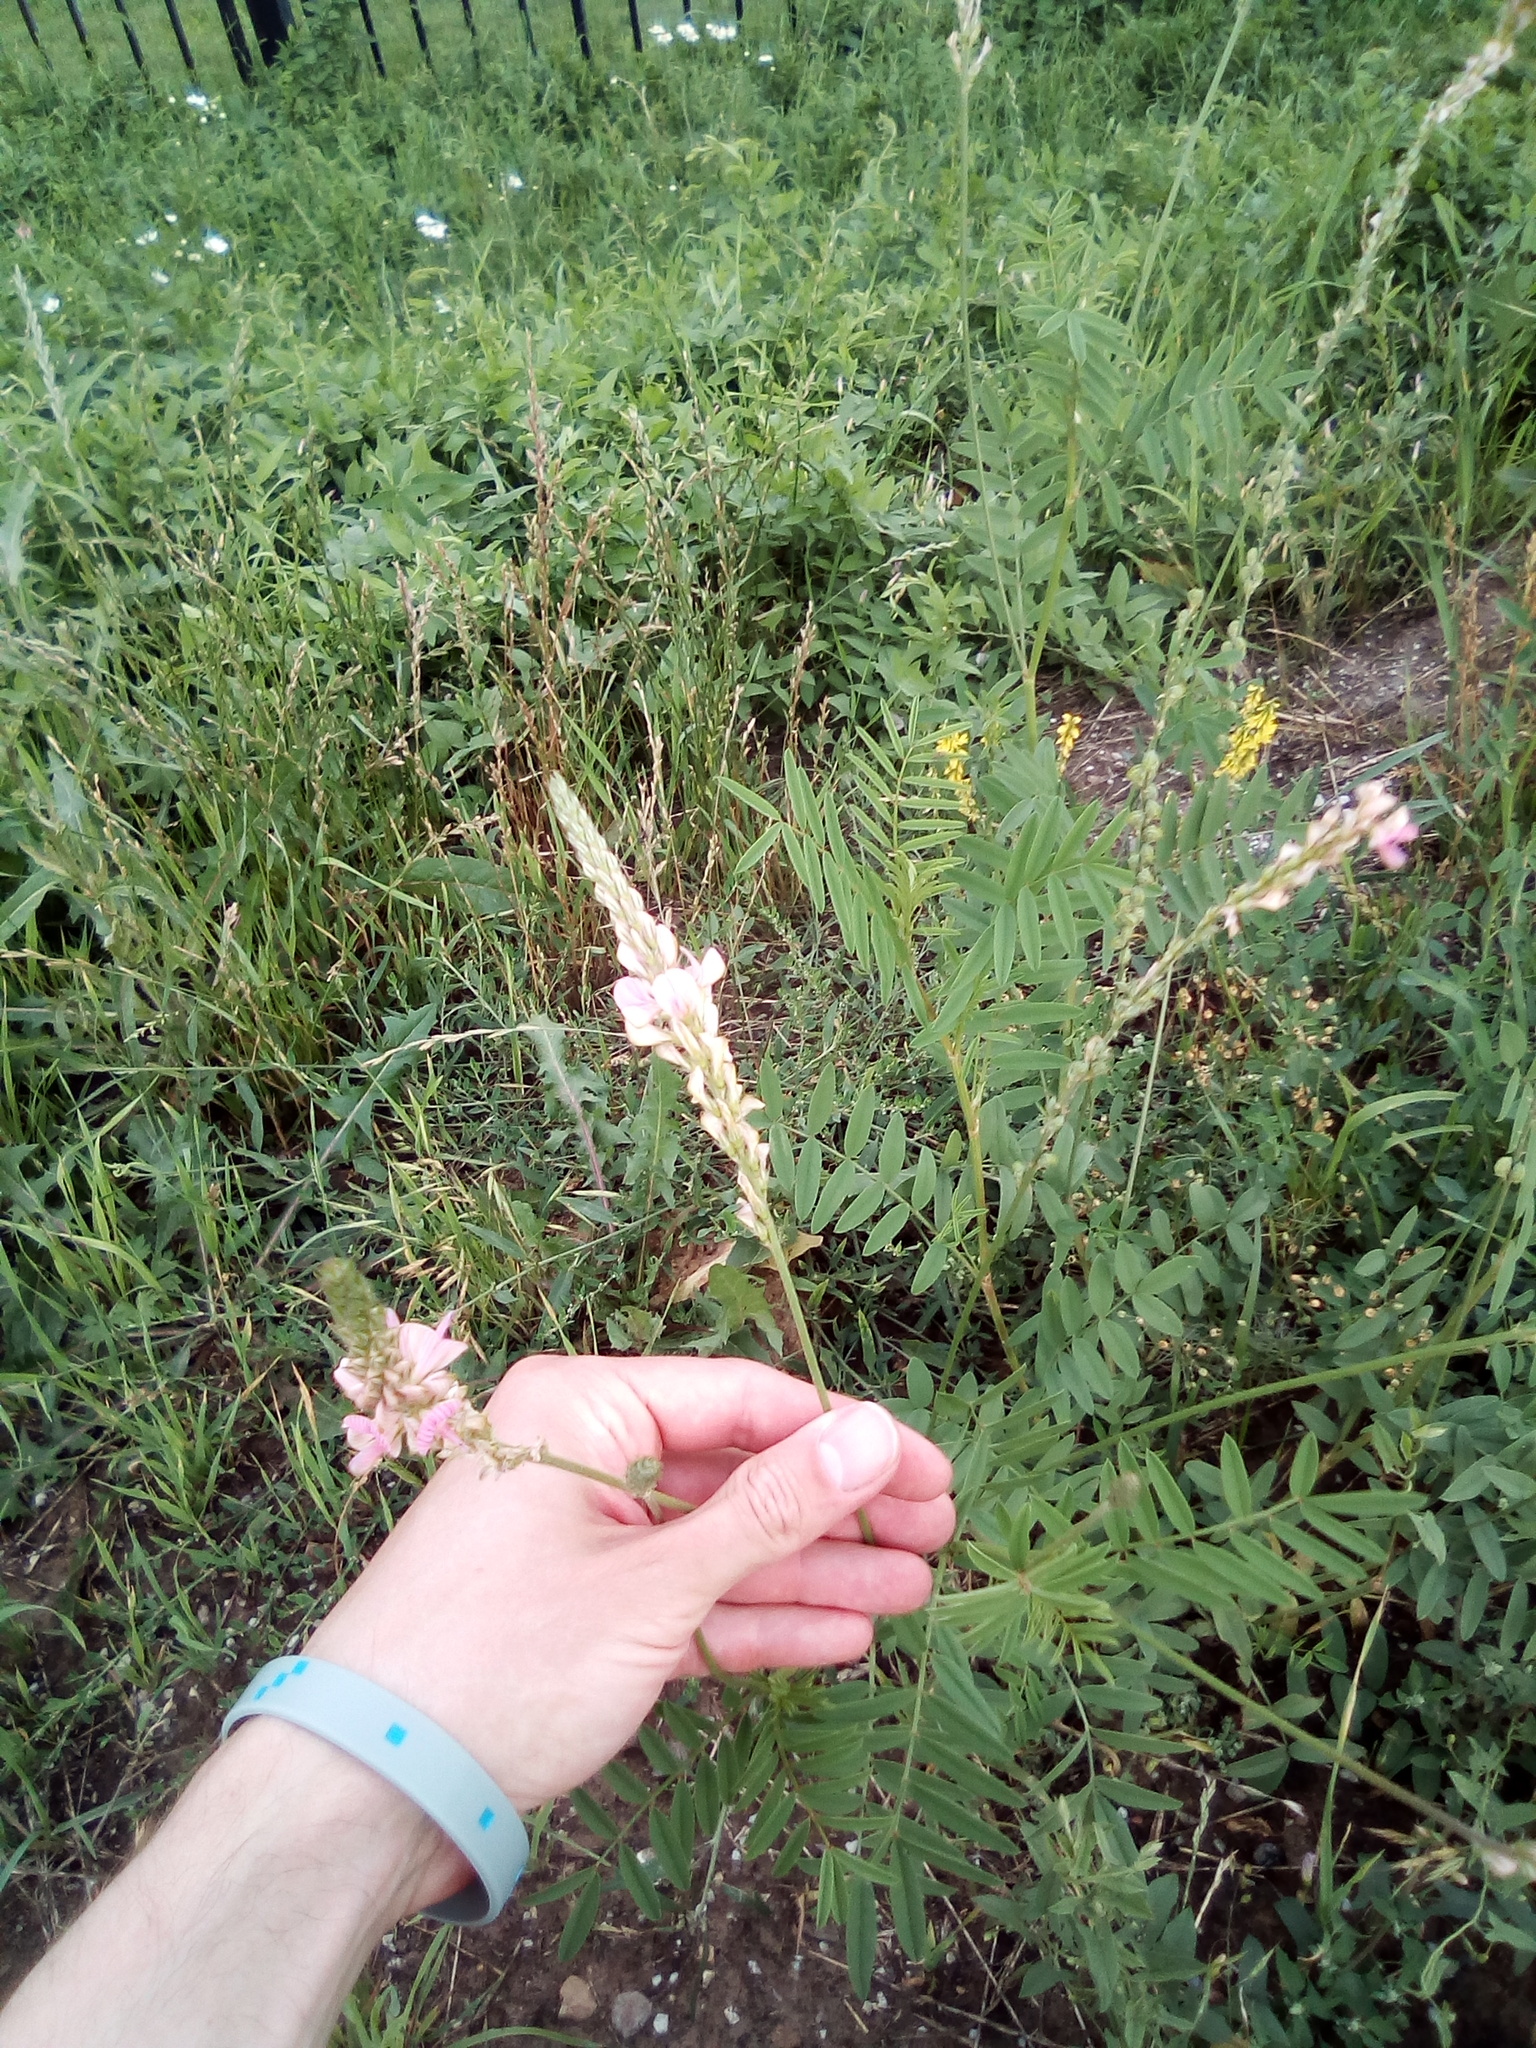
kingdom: Plantae
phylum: Tracheophyta
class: Magnoliopsida
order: Fabales
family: Fabaceae
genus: Onobrychis
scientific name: Onobrychis viciifolia
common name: Sainfoin
